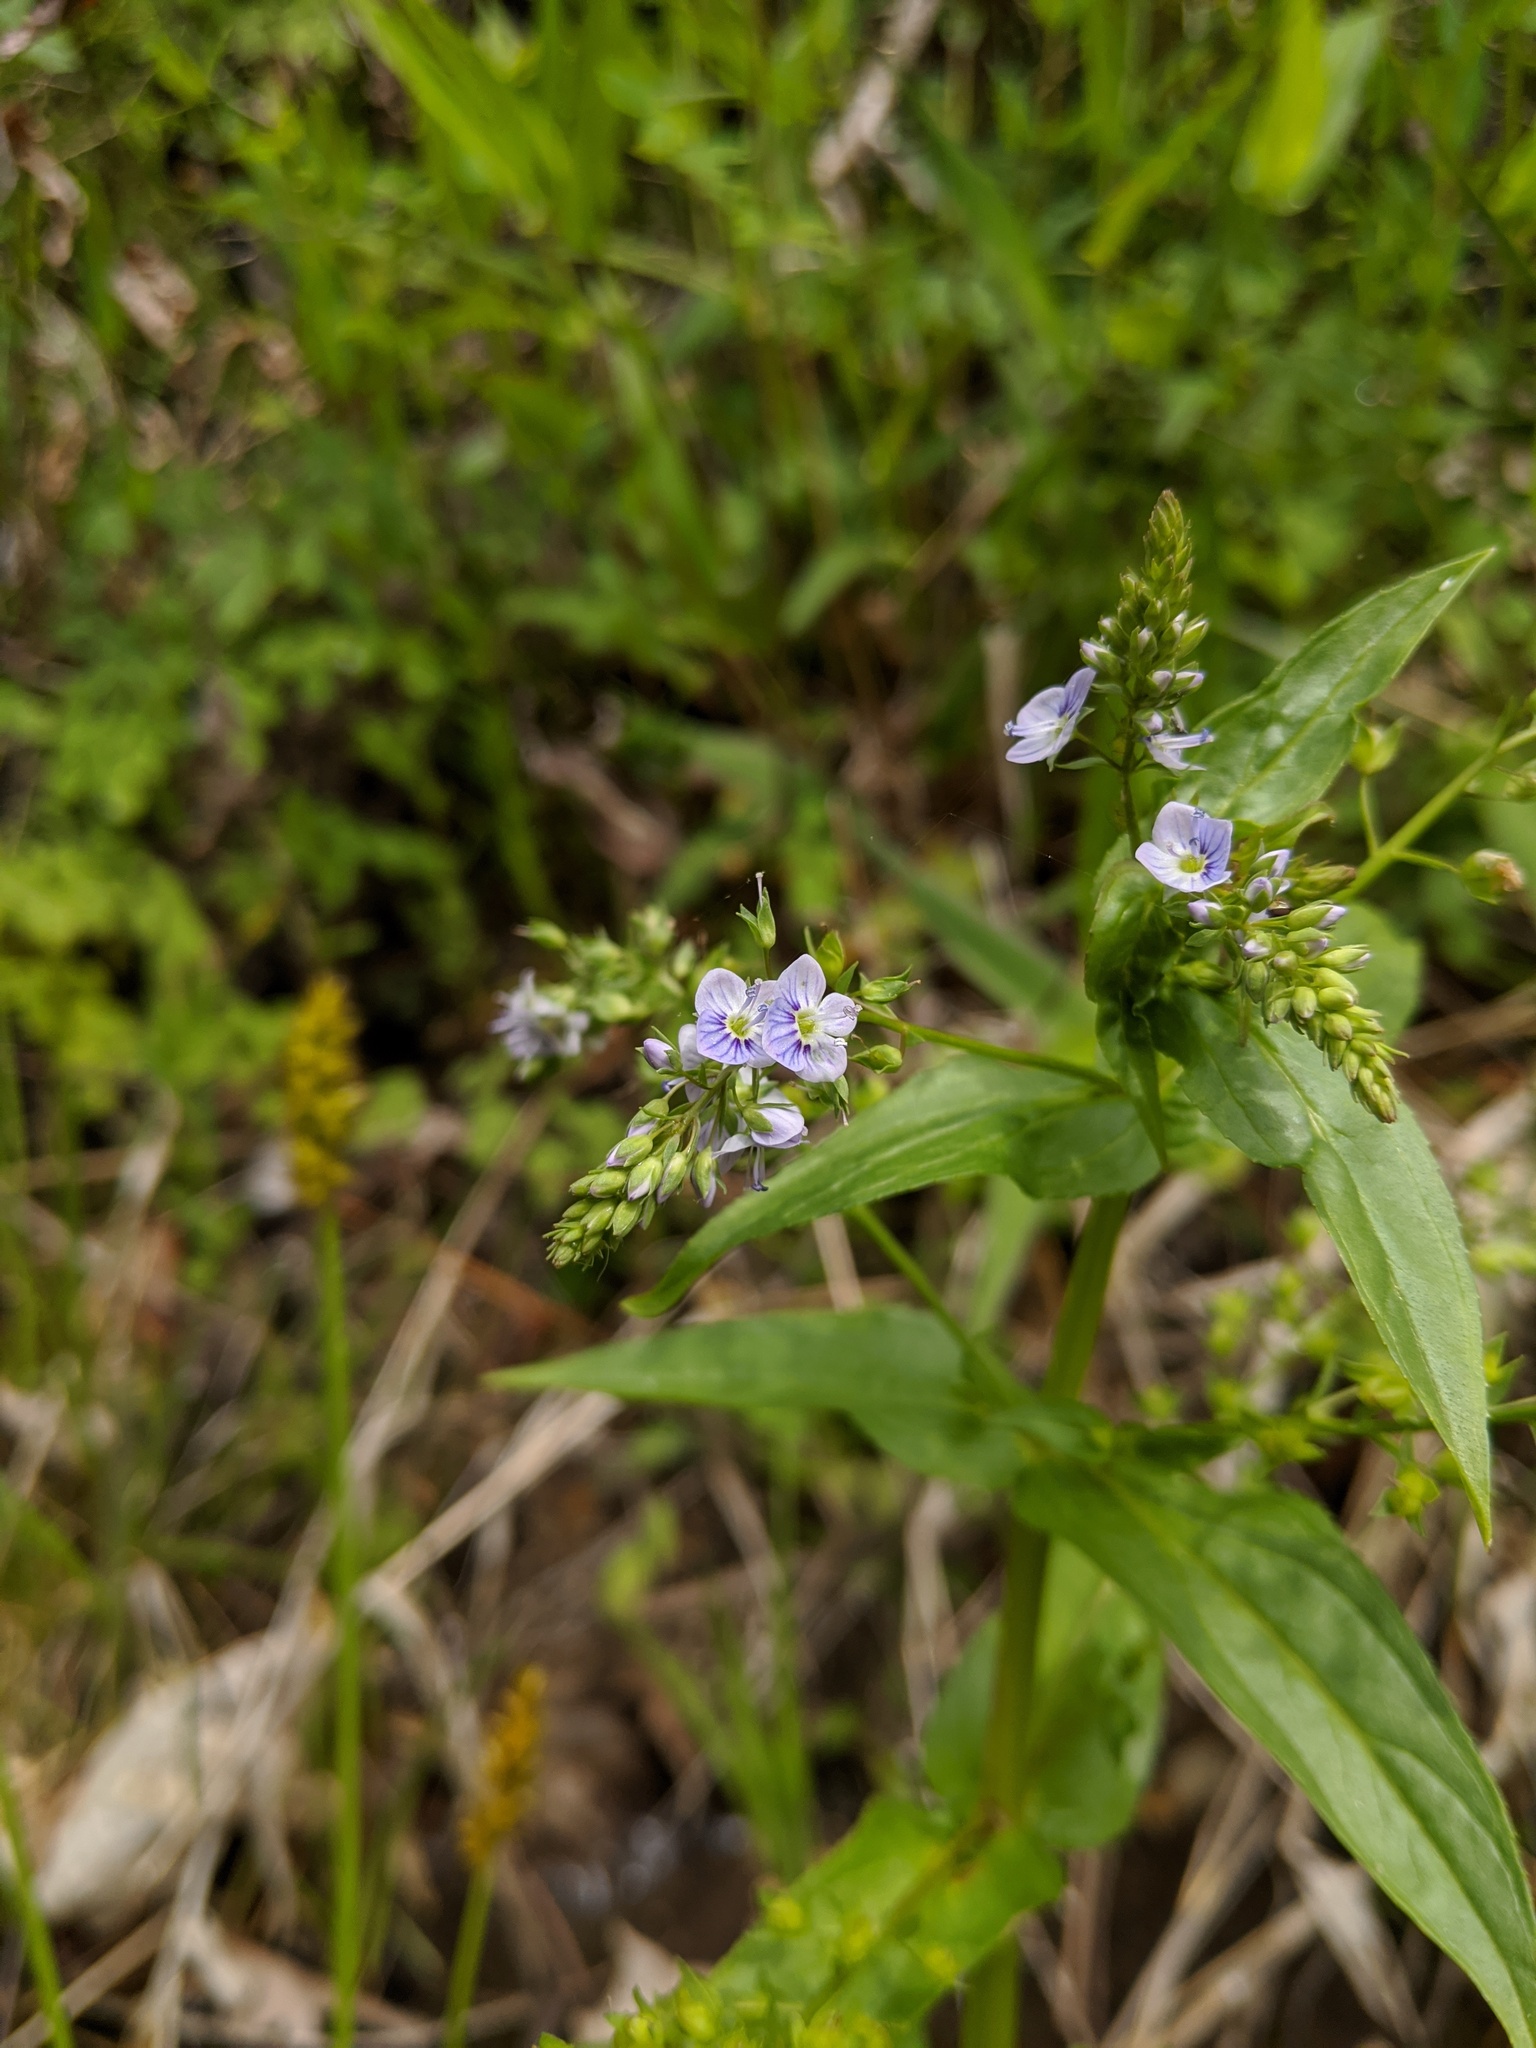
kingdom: Plantae
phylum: Tracheophyta
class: Magnoliopsida
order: Lamiales
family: Plantaginaceae
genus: Veronica
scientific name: Veronica catenata
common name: Pink water-speedwell
